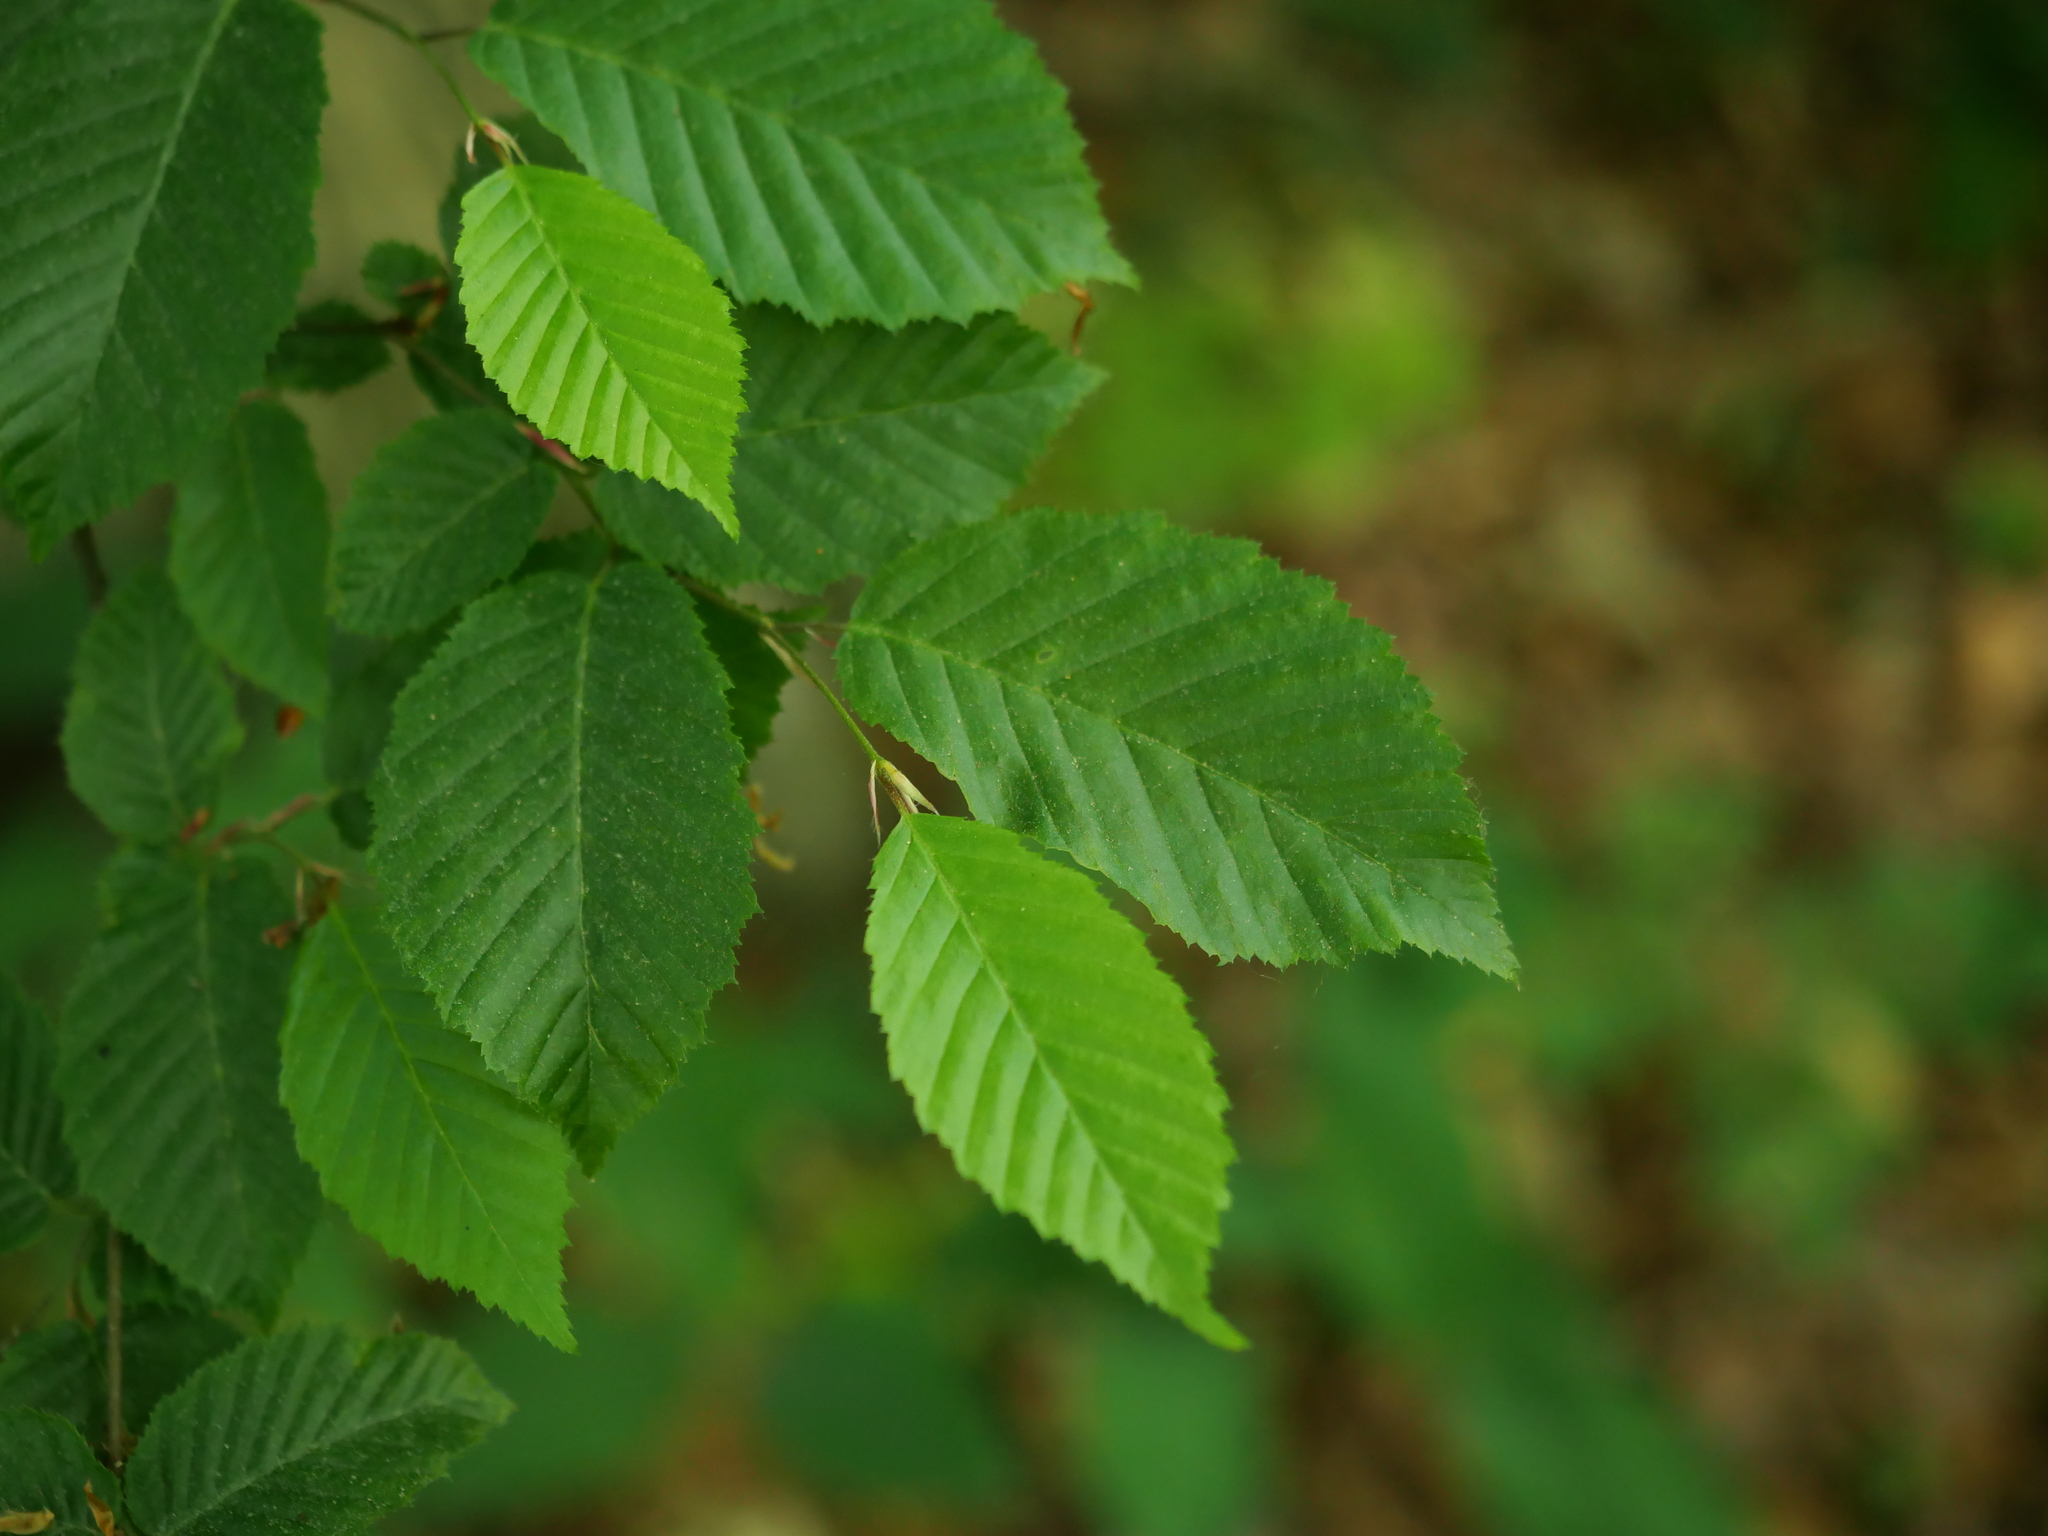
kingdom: Plantae
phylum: Tracheophyta
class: Magnoliopsida
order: Fagales
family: Betulaceae
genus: Carpinus
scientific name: Carpinus betulus
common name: Hornbeam
